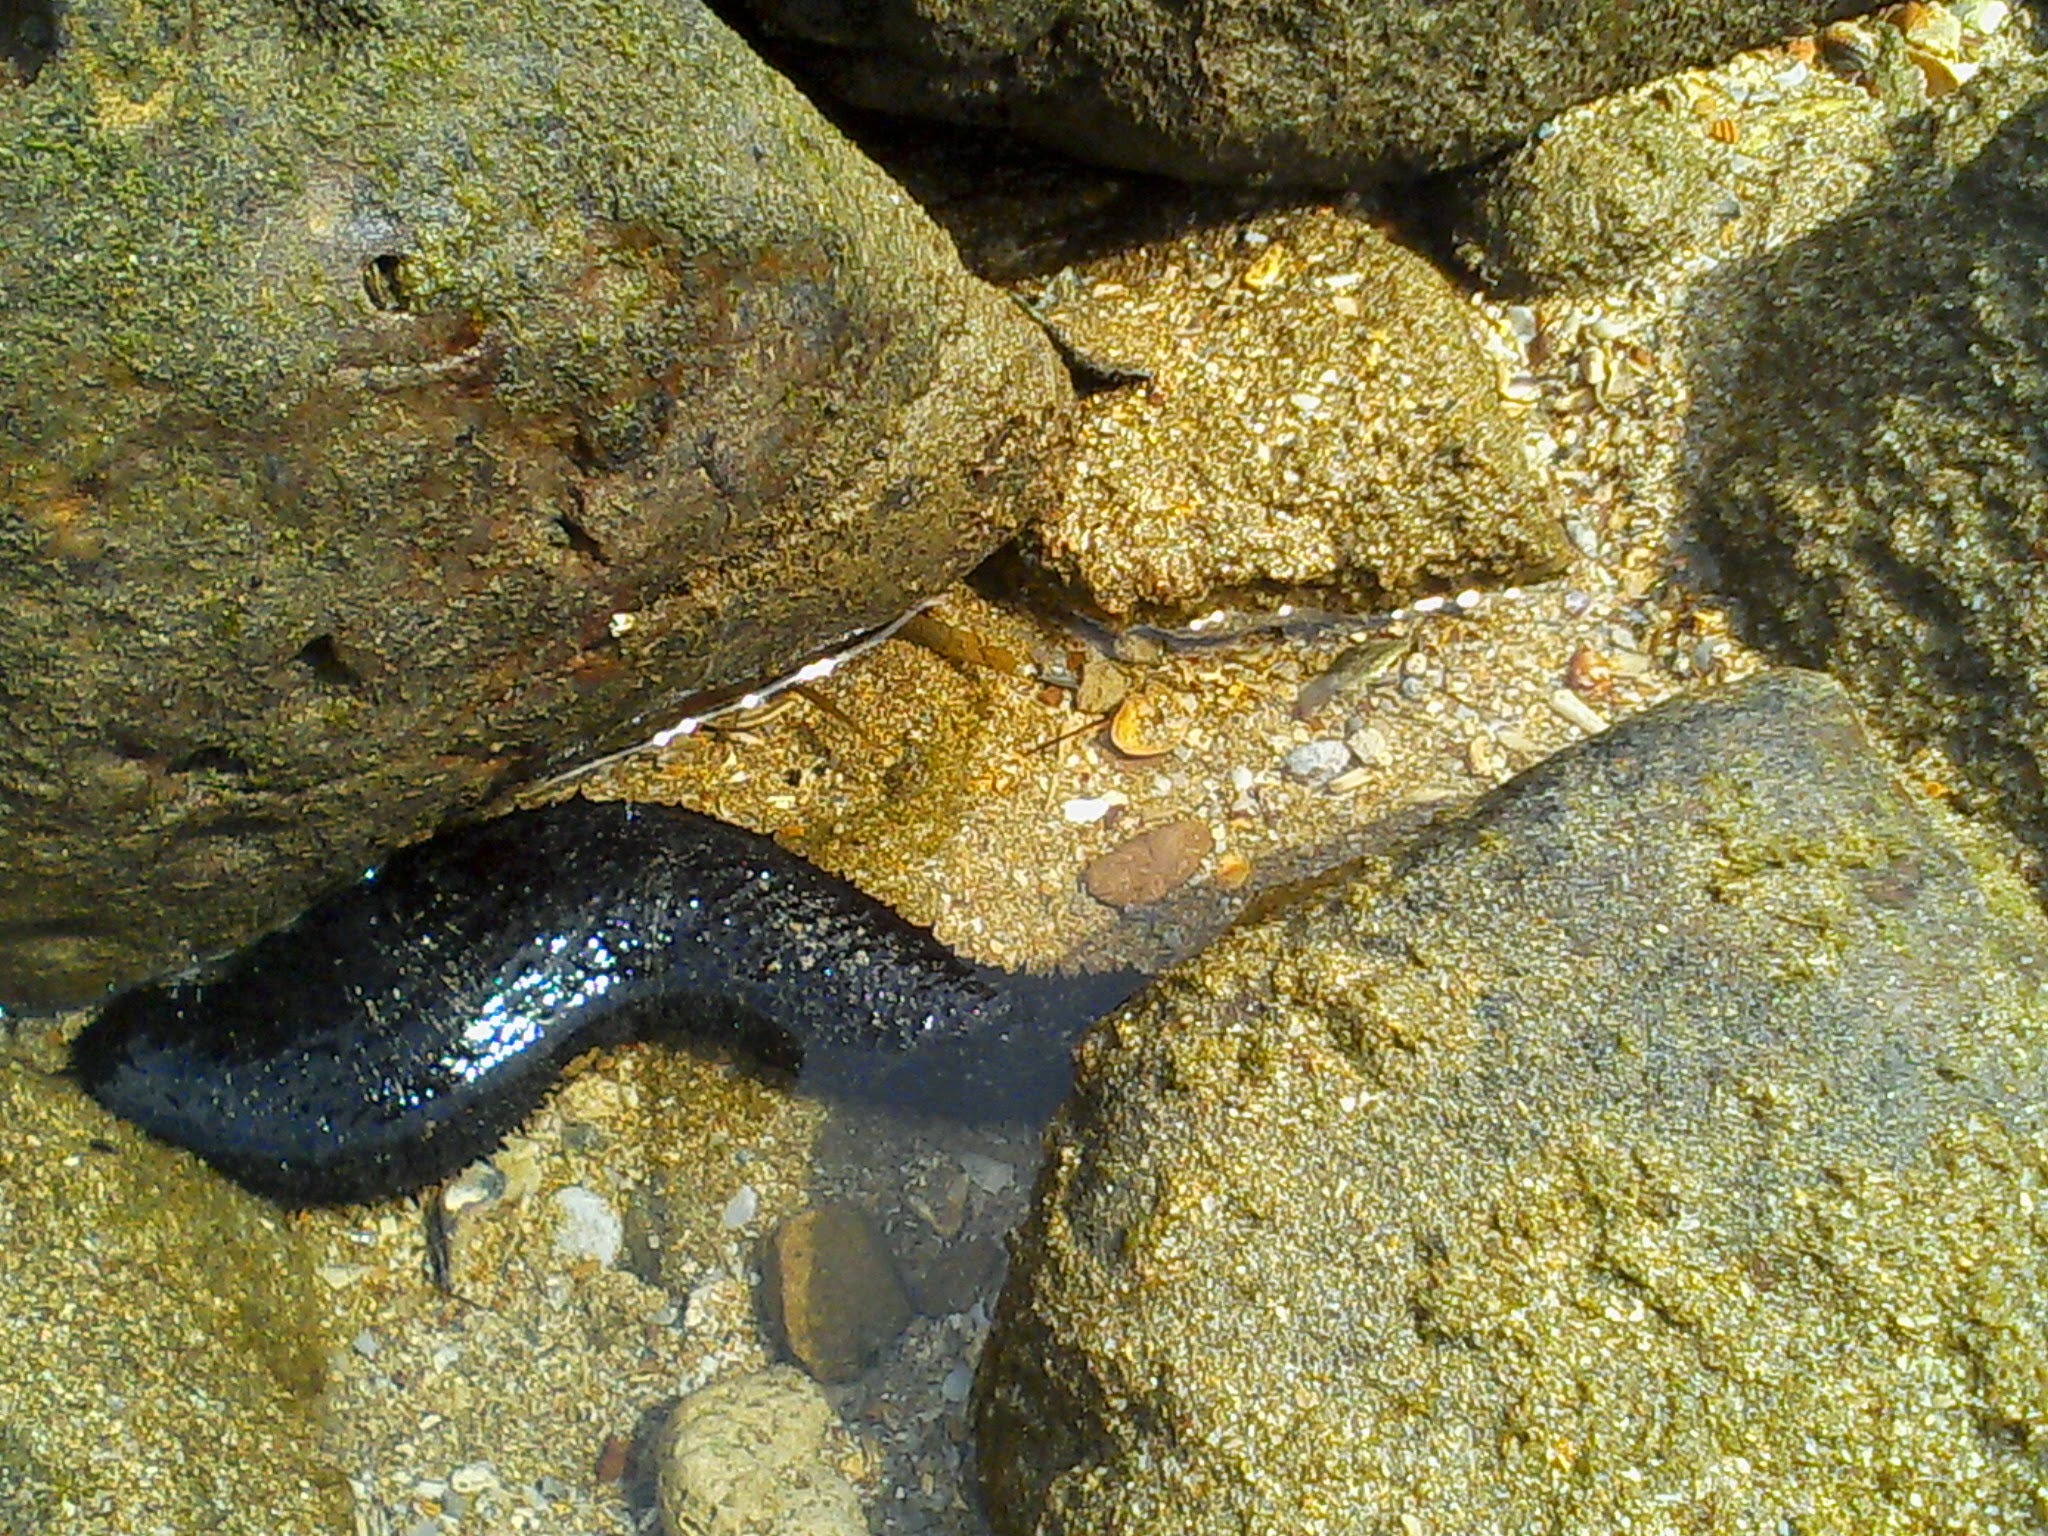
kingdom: Animalia
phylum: Echinodermata
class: Holothuroidea
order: Holothuriida
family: Holothuriidae
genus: Holothuria
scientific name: Holothuria leucospilota
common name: White thread fish
